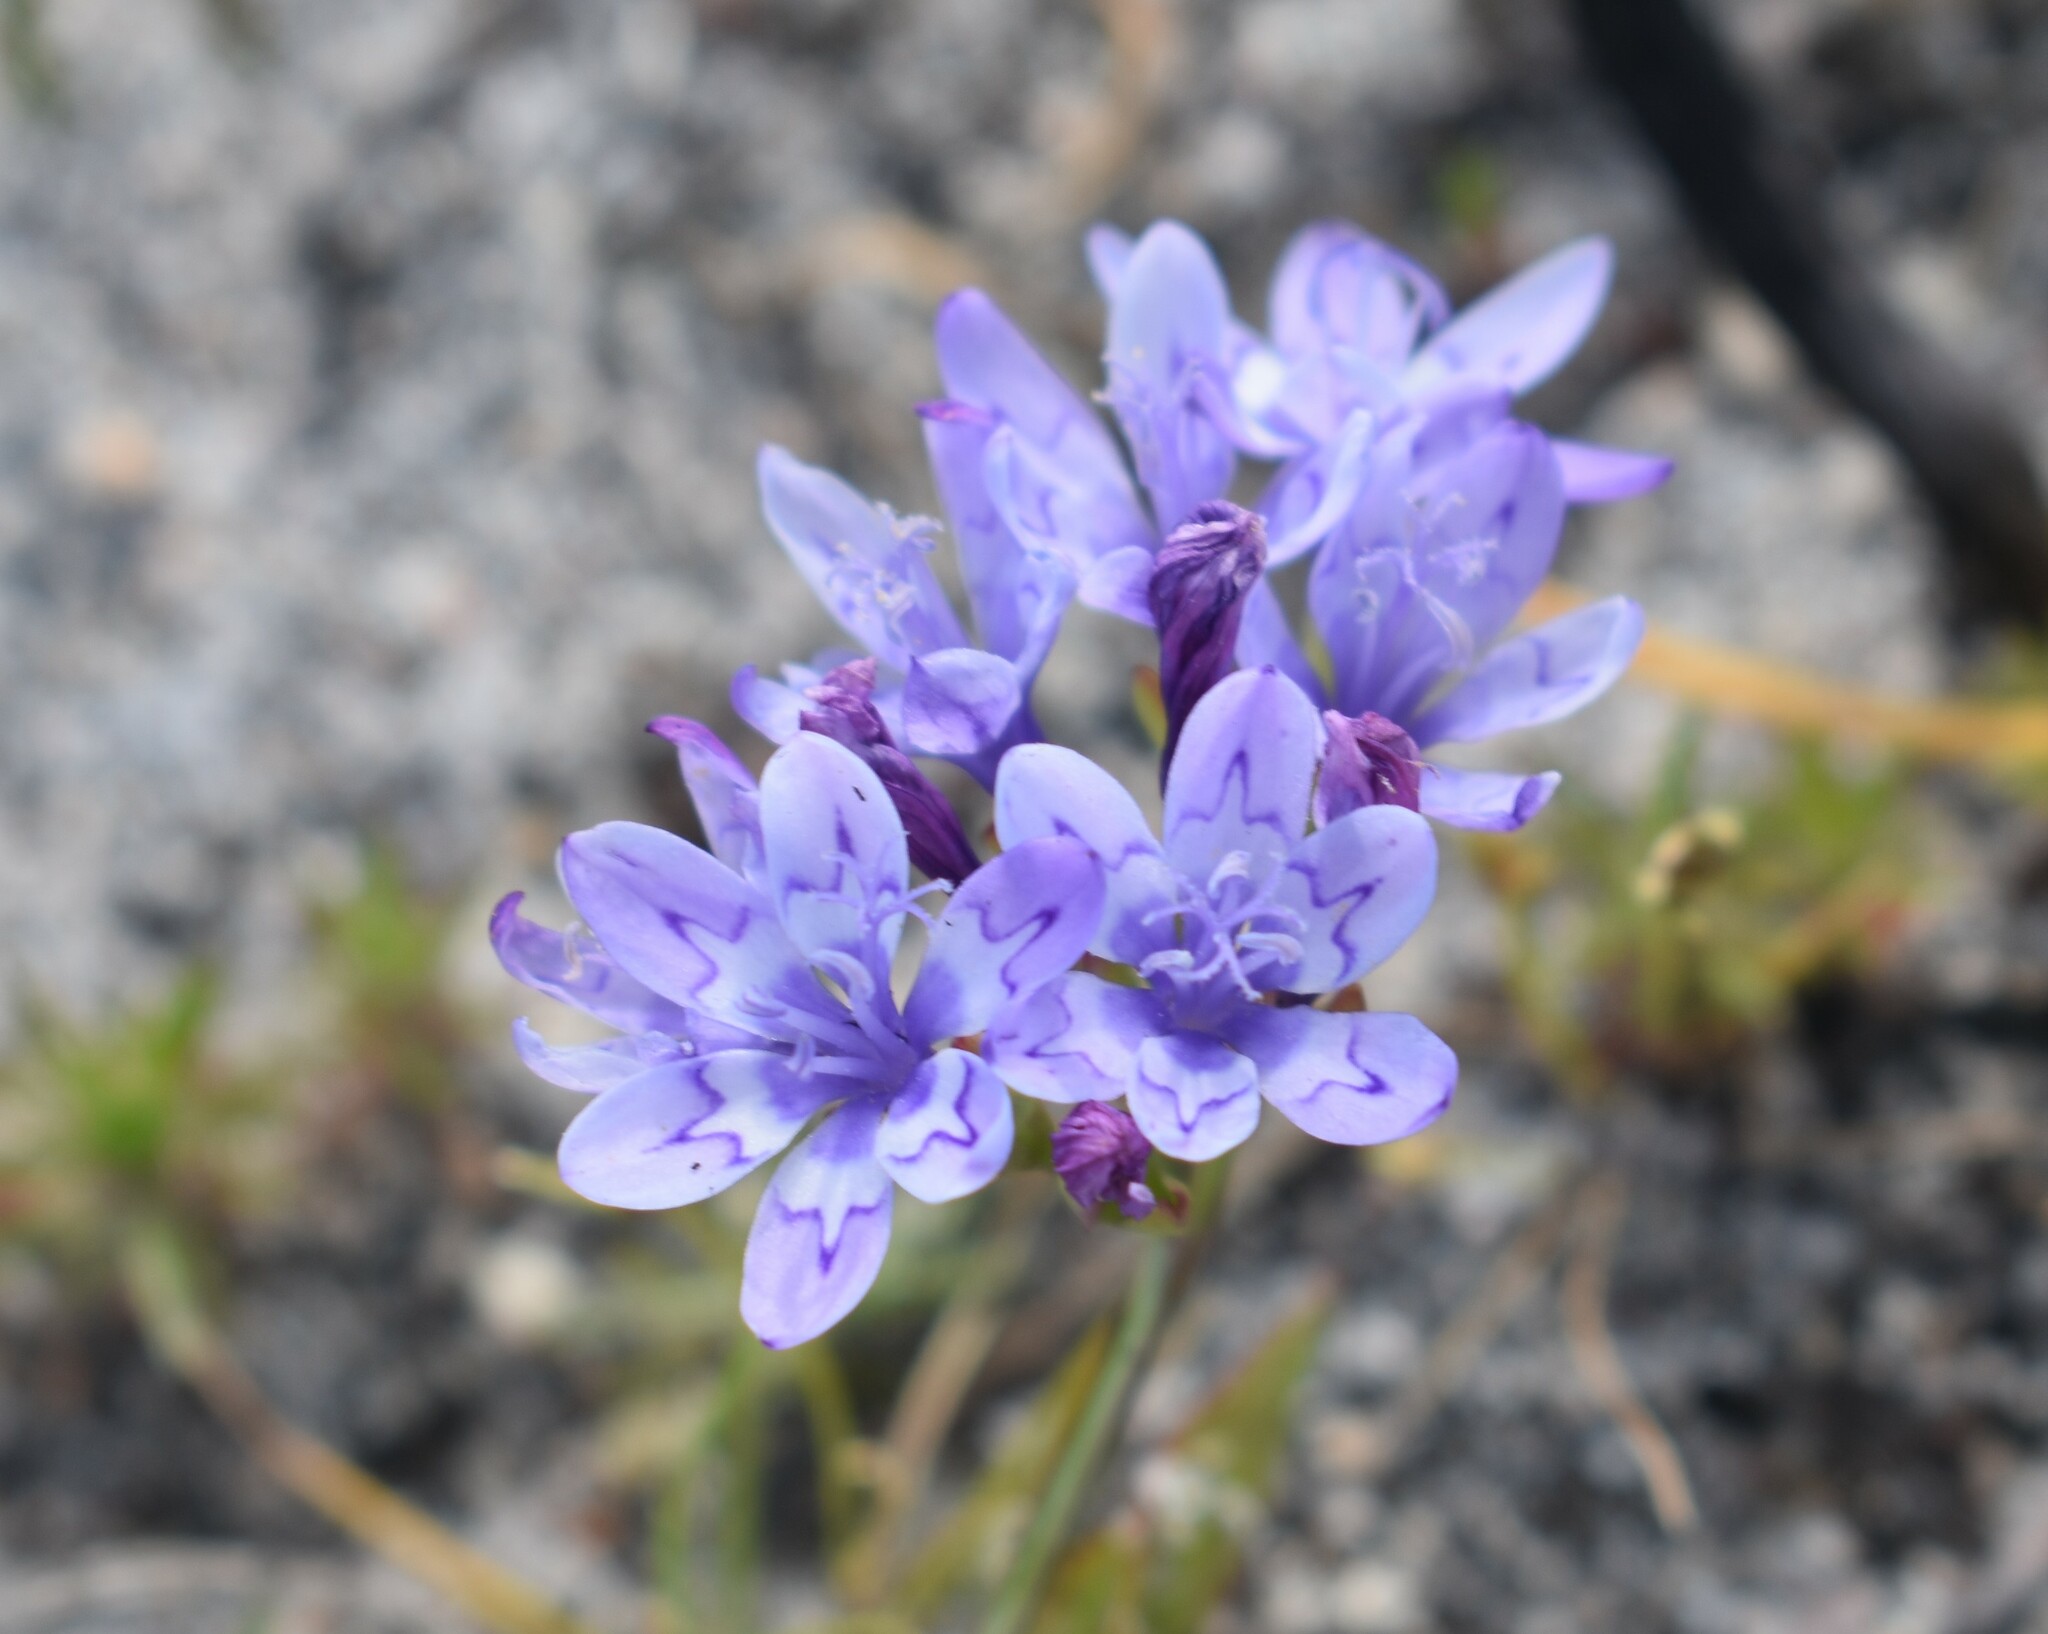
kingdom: Plantae
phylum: Tracheophyta
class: Liliopsida
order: Asparagales
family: Iridaceae
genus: Codonorhiza
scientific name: Codonorhiza corymbosa
